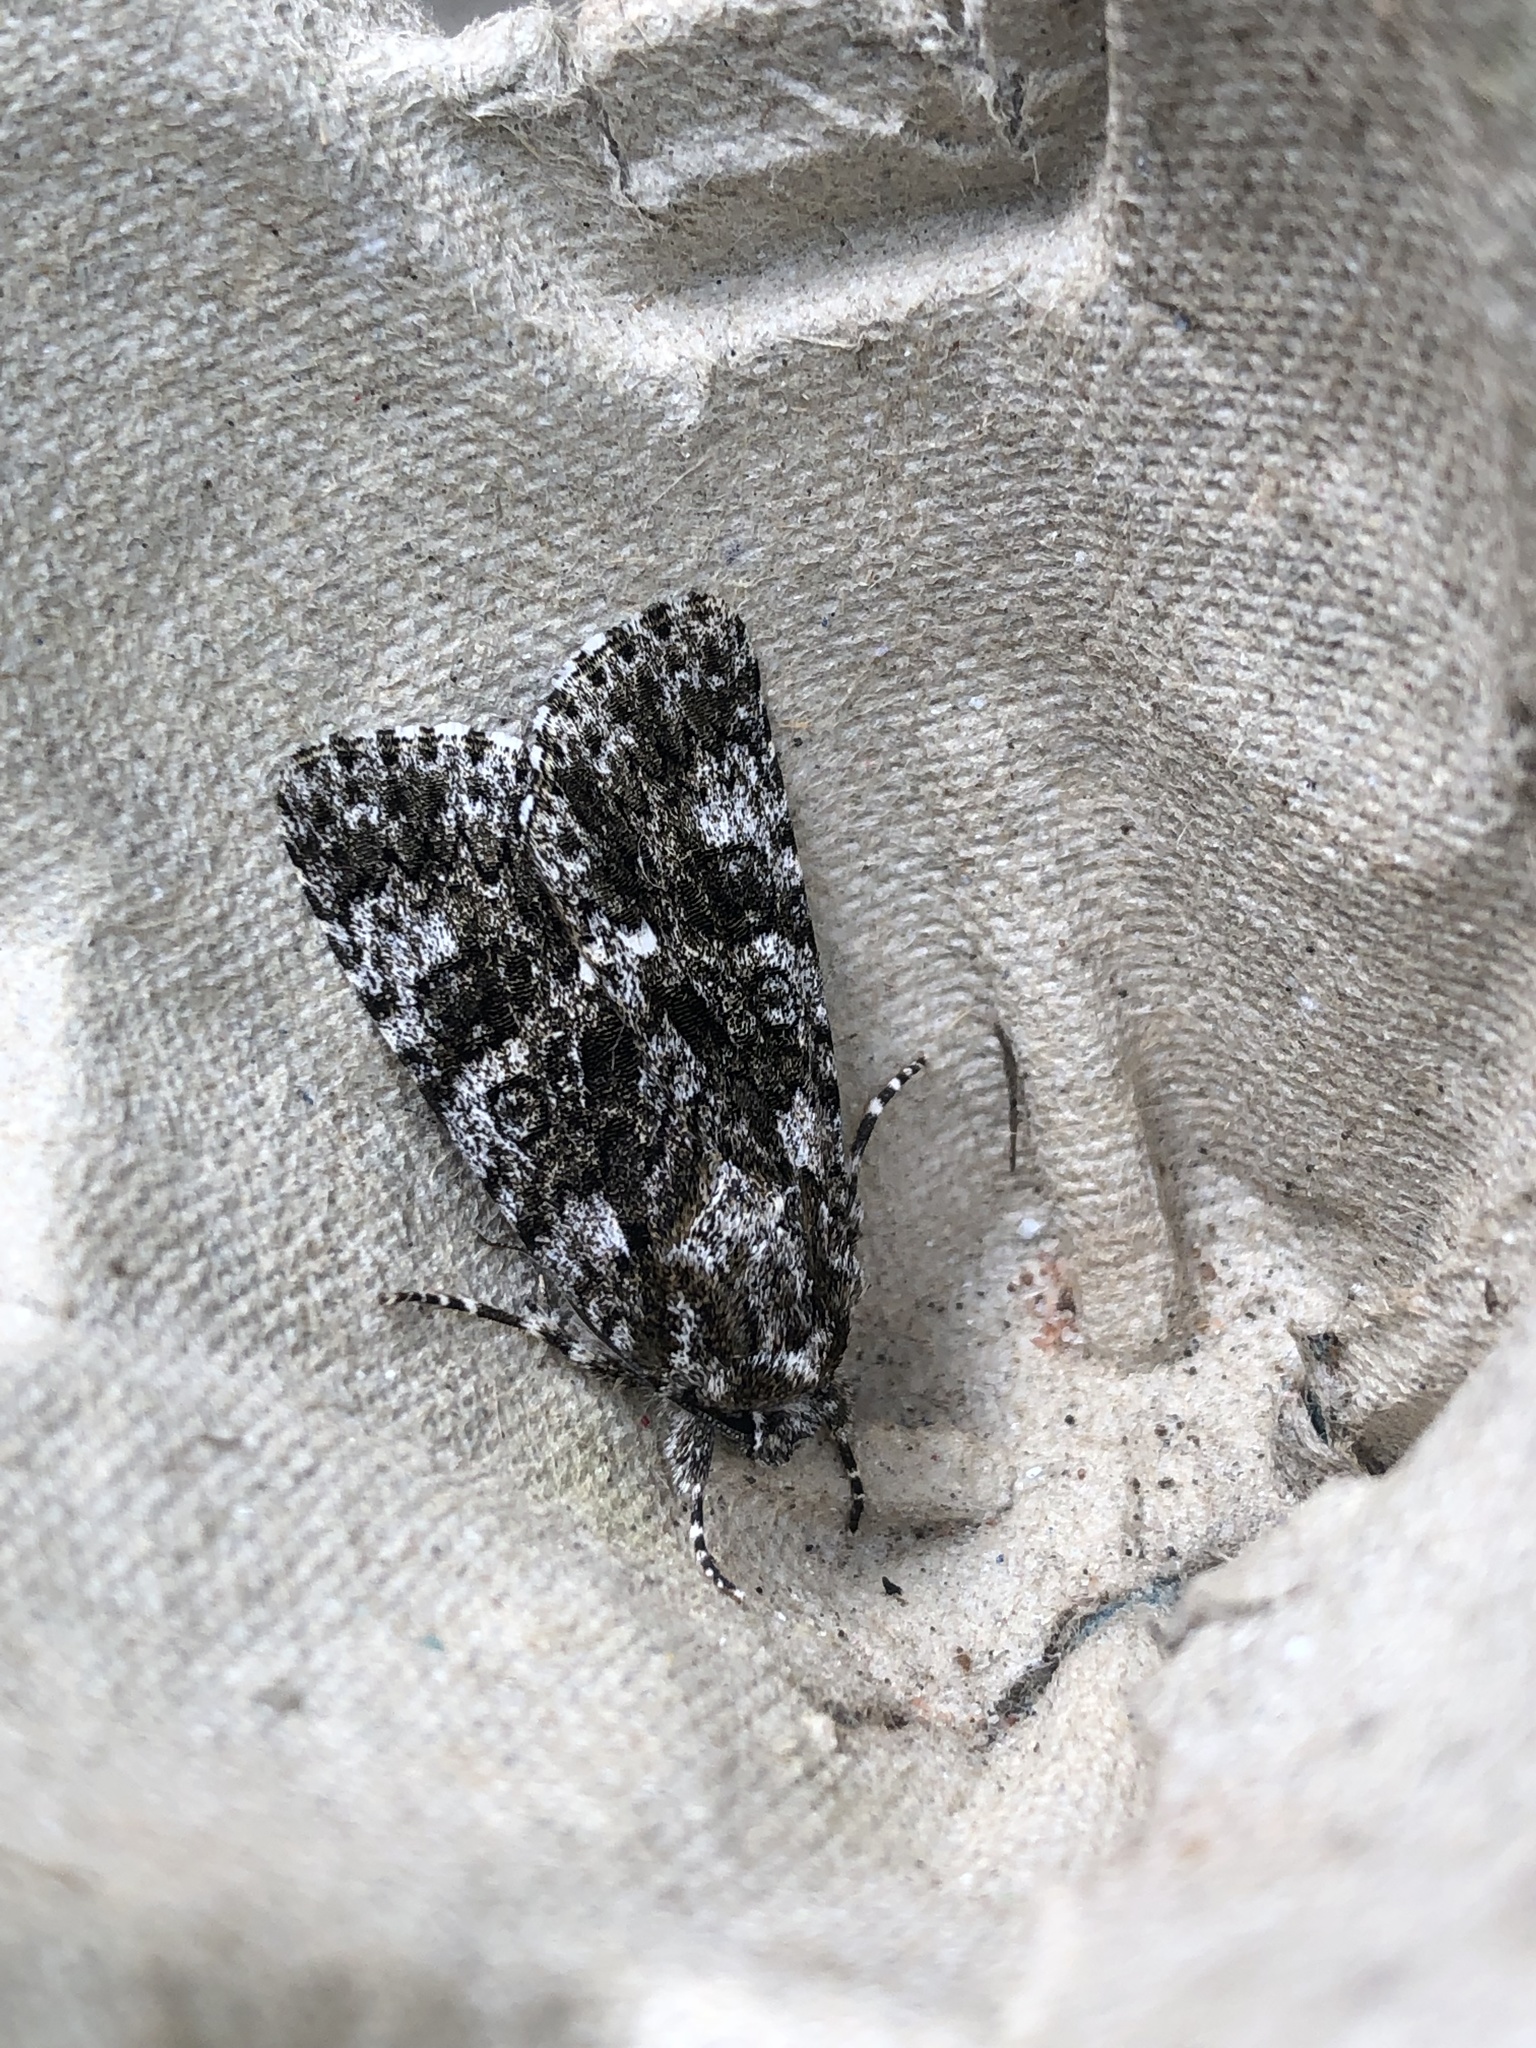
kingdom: Animalia
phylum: Arthropoda
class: Insecta
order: Lepidoptera
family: Noctuidae
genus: Acronicta
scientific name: Acronicta rumicis
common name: Knot grass
